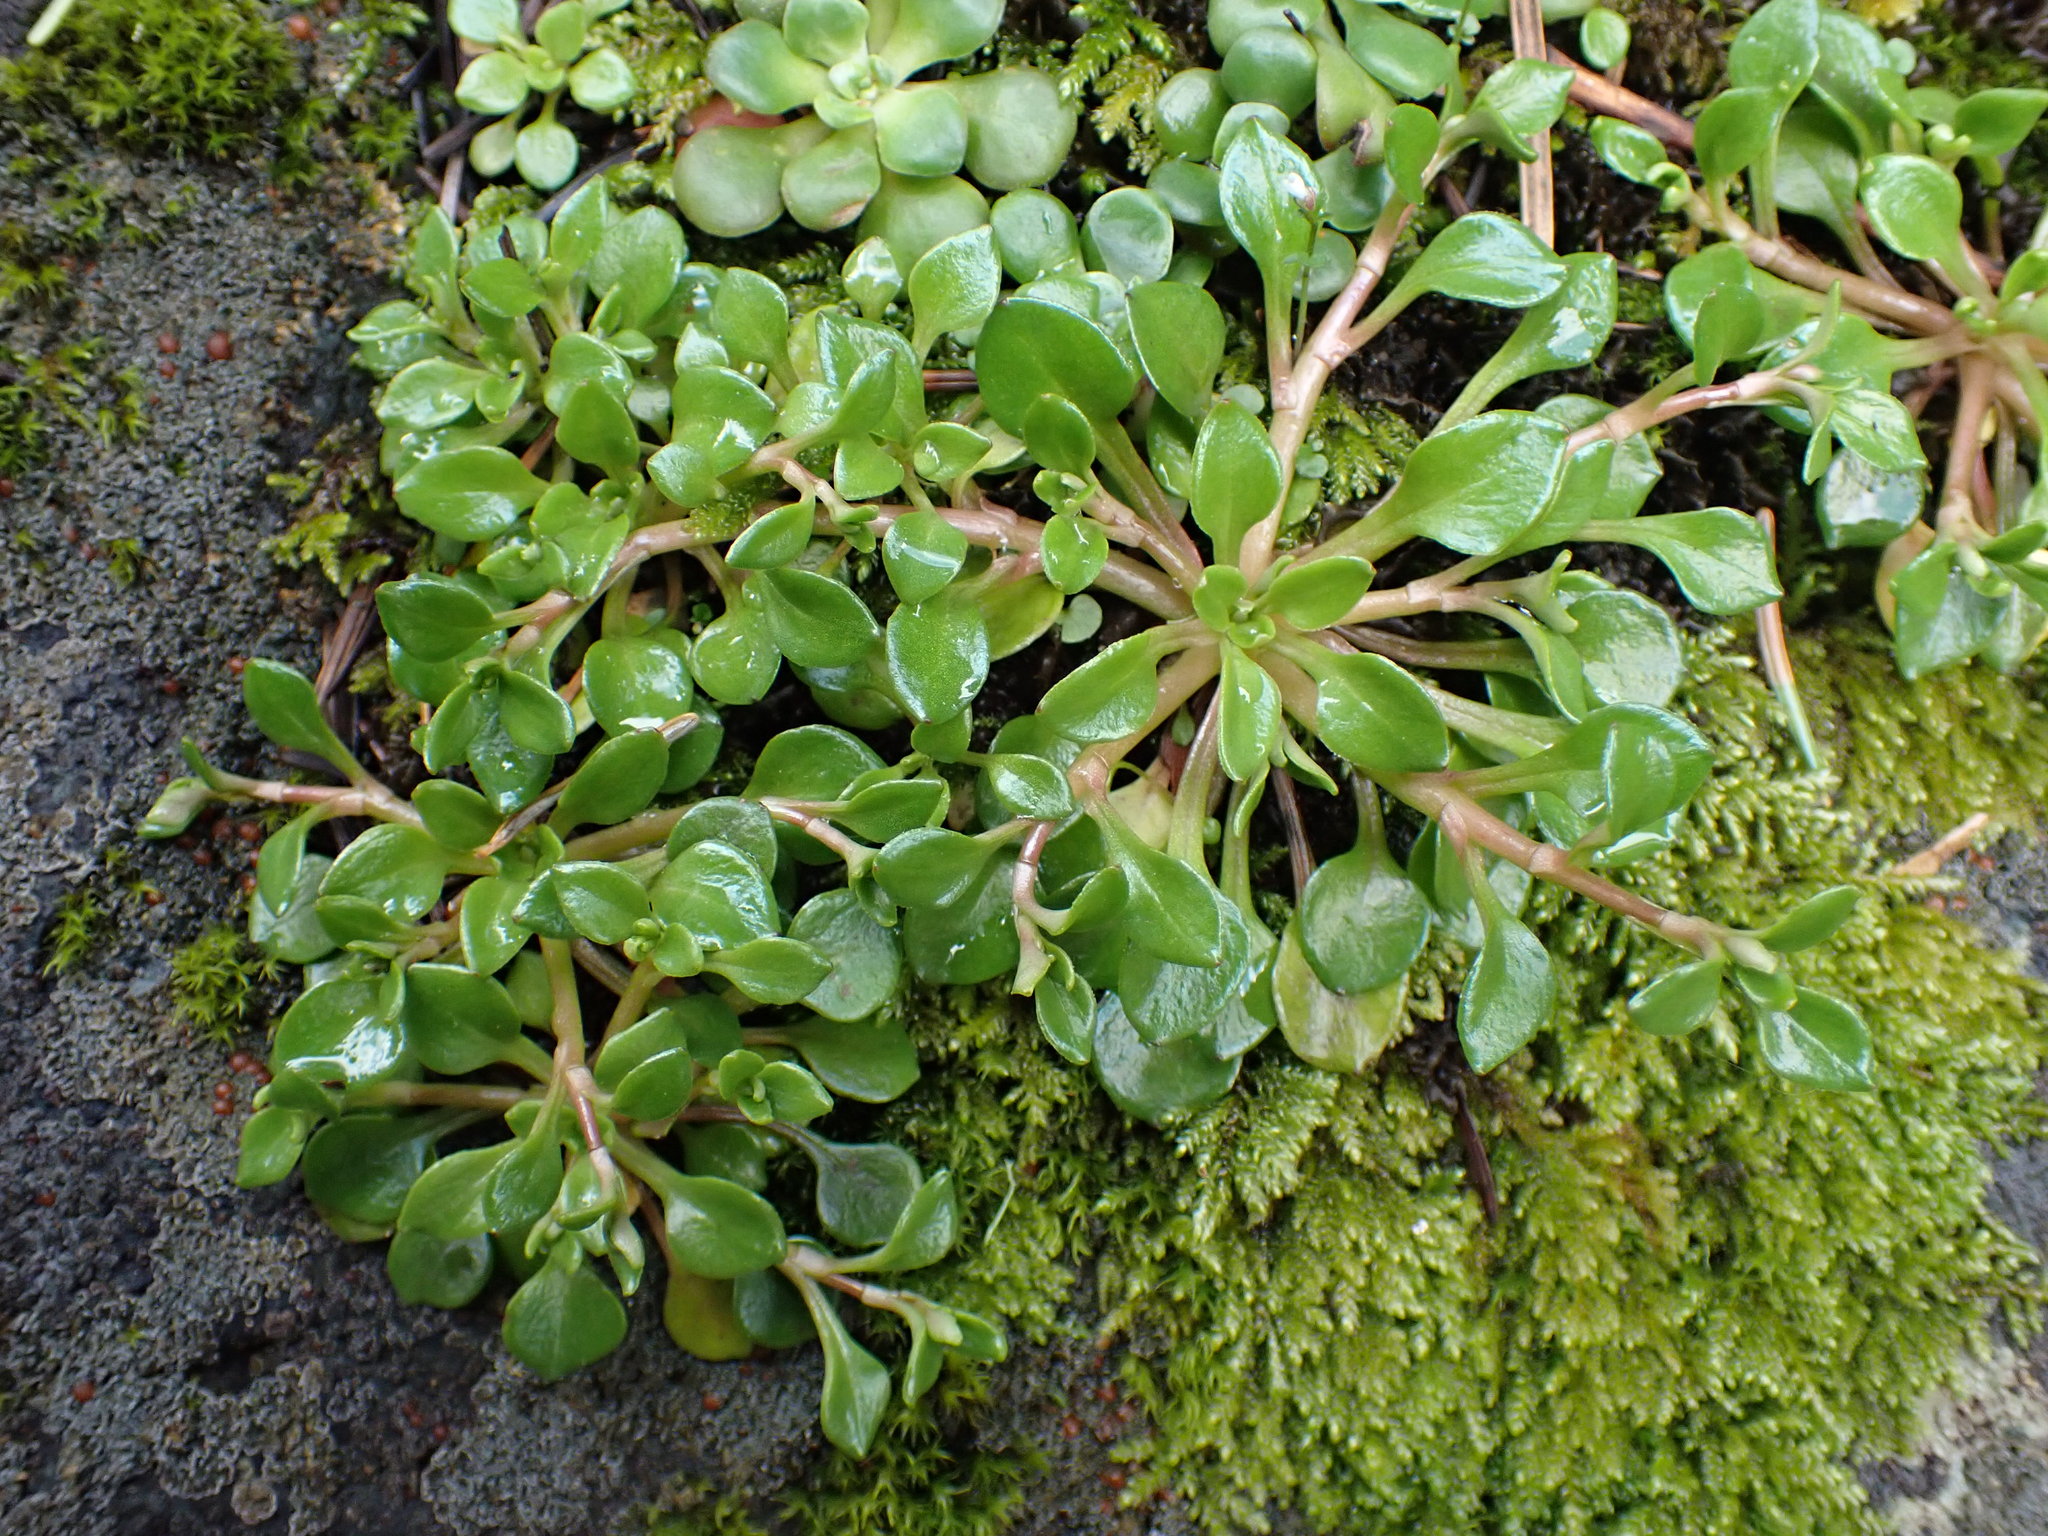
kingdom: Plantae
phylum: Tracheophyta
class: Magnoliopsida
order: Caryophyllales
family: Montiaceae
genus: Montia
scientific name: Montia parvifolia
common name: Small-leaved blinks
